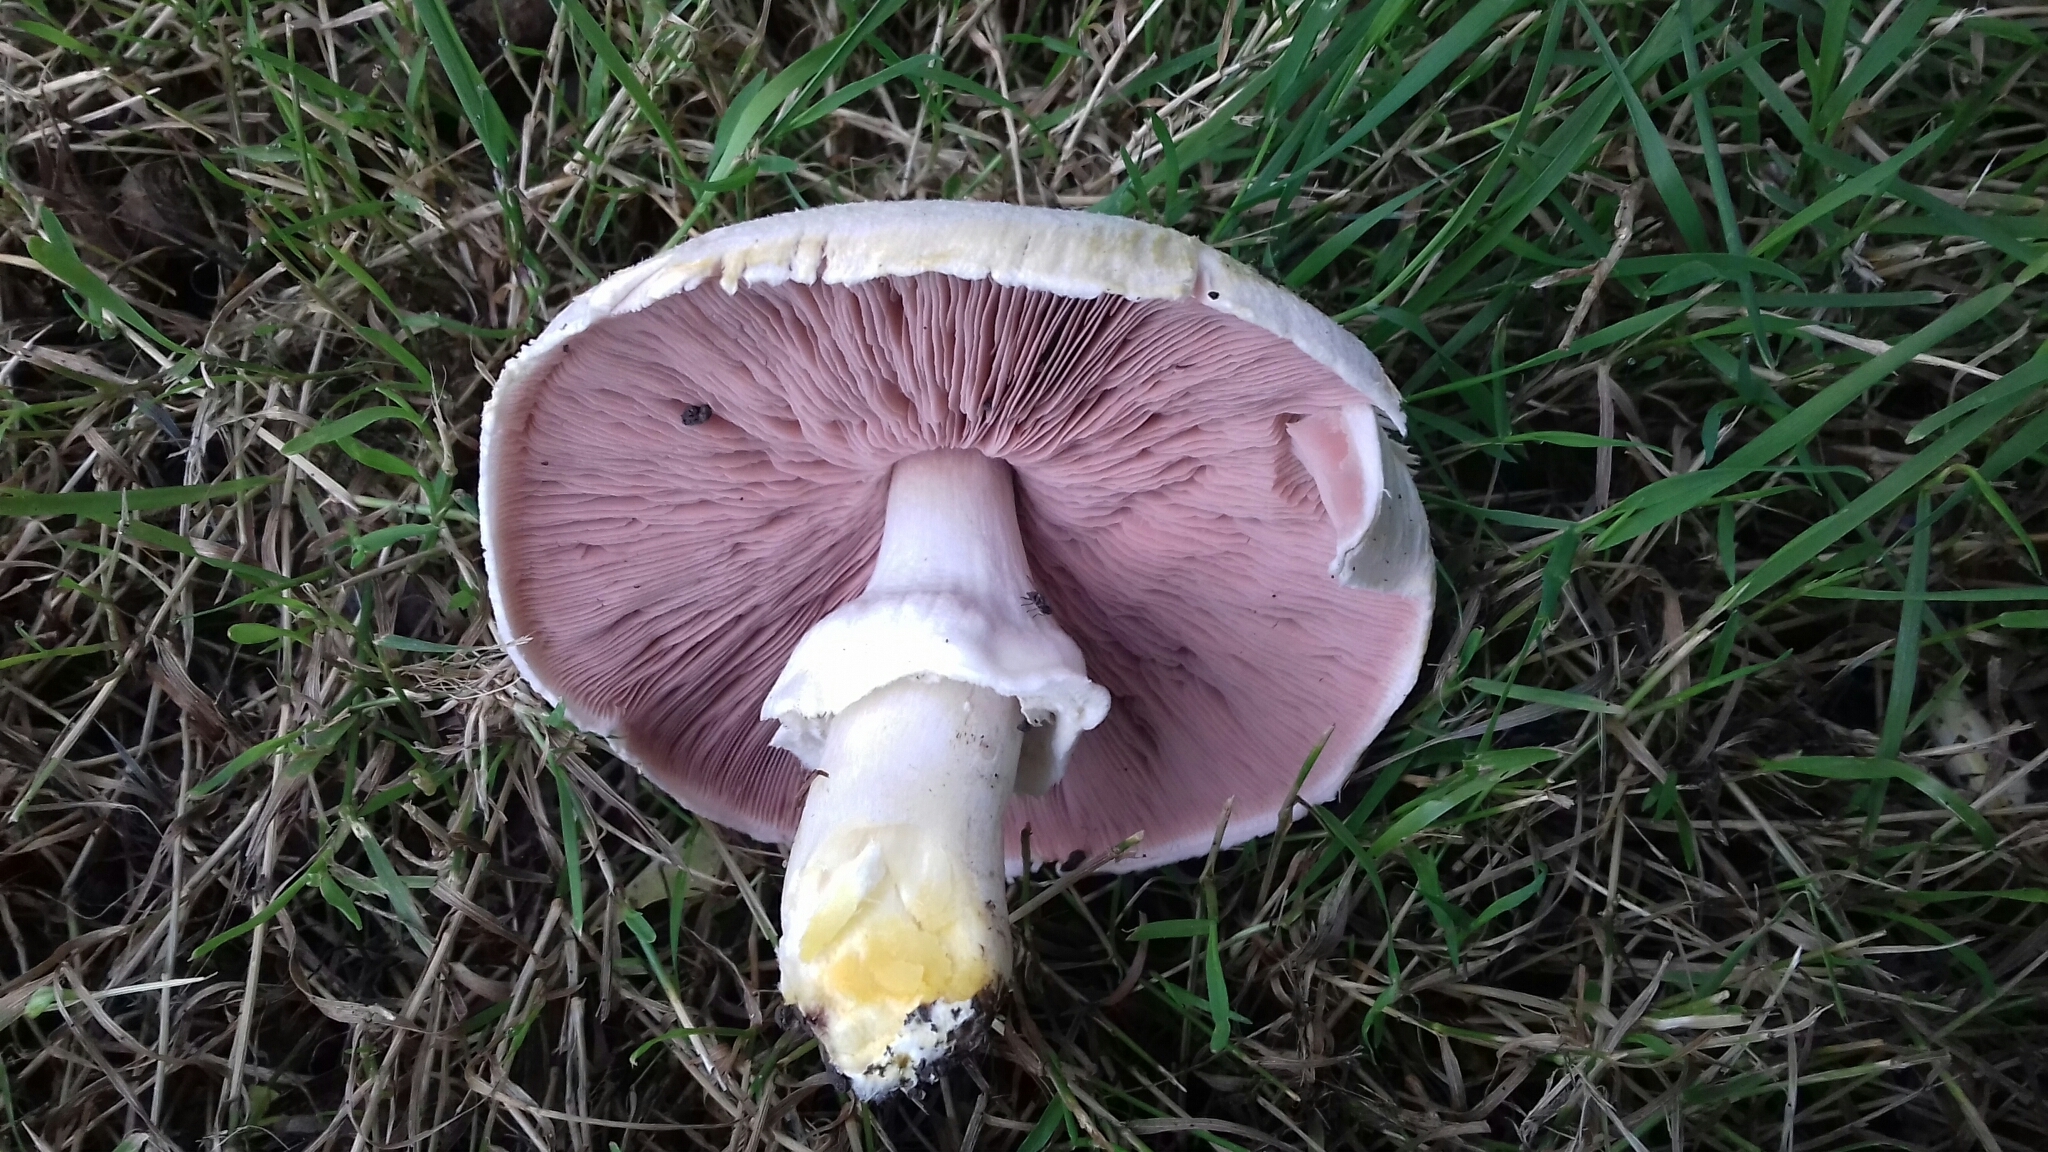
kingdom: Fungi
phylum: Basidiomycota
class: Agaricomycetes
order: Agaricales
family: Agaricaceae
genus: Agaricus
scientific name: Agaricus xanthodermus
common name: Yellow stainer
